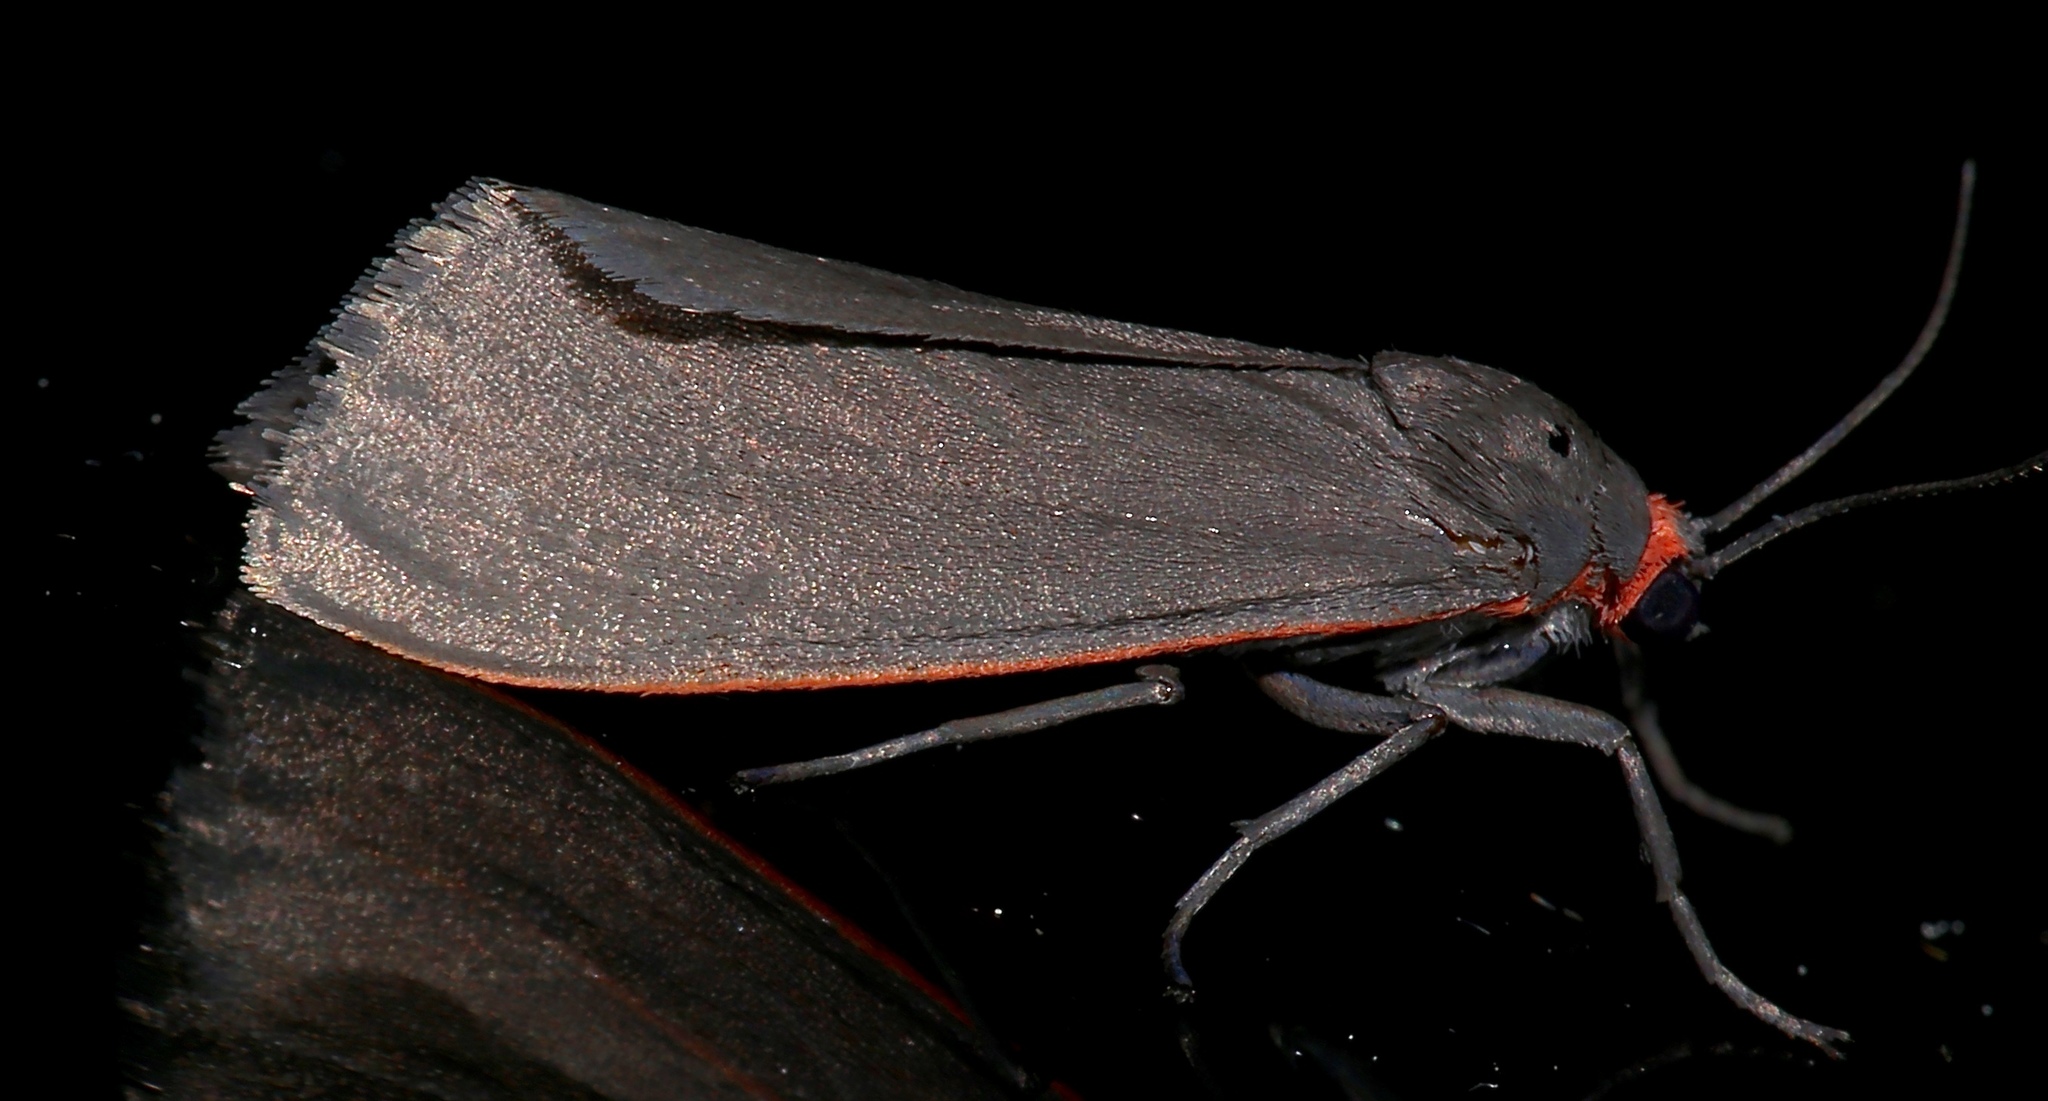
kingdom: Animalia
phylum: Arthropoda
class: Insecta
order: Lepidoptera
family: Erebidae
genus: Virbia
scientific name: Virbia laeta
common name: Joyful holomelina moth
